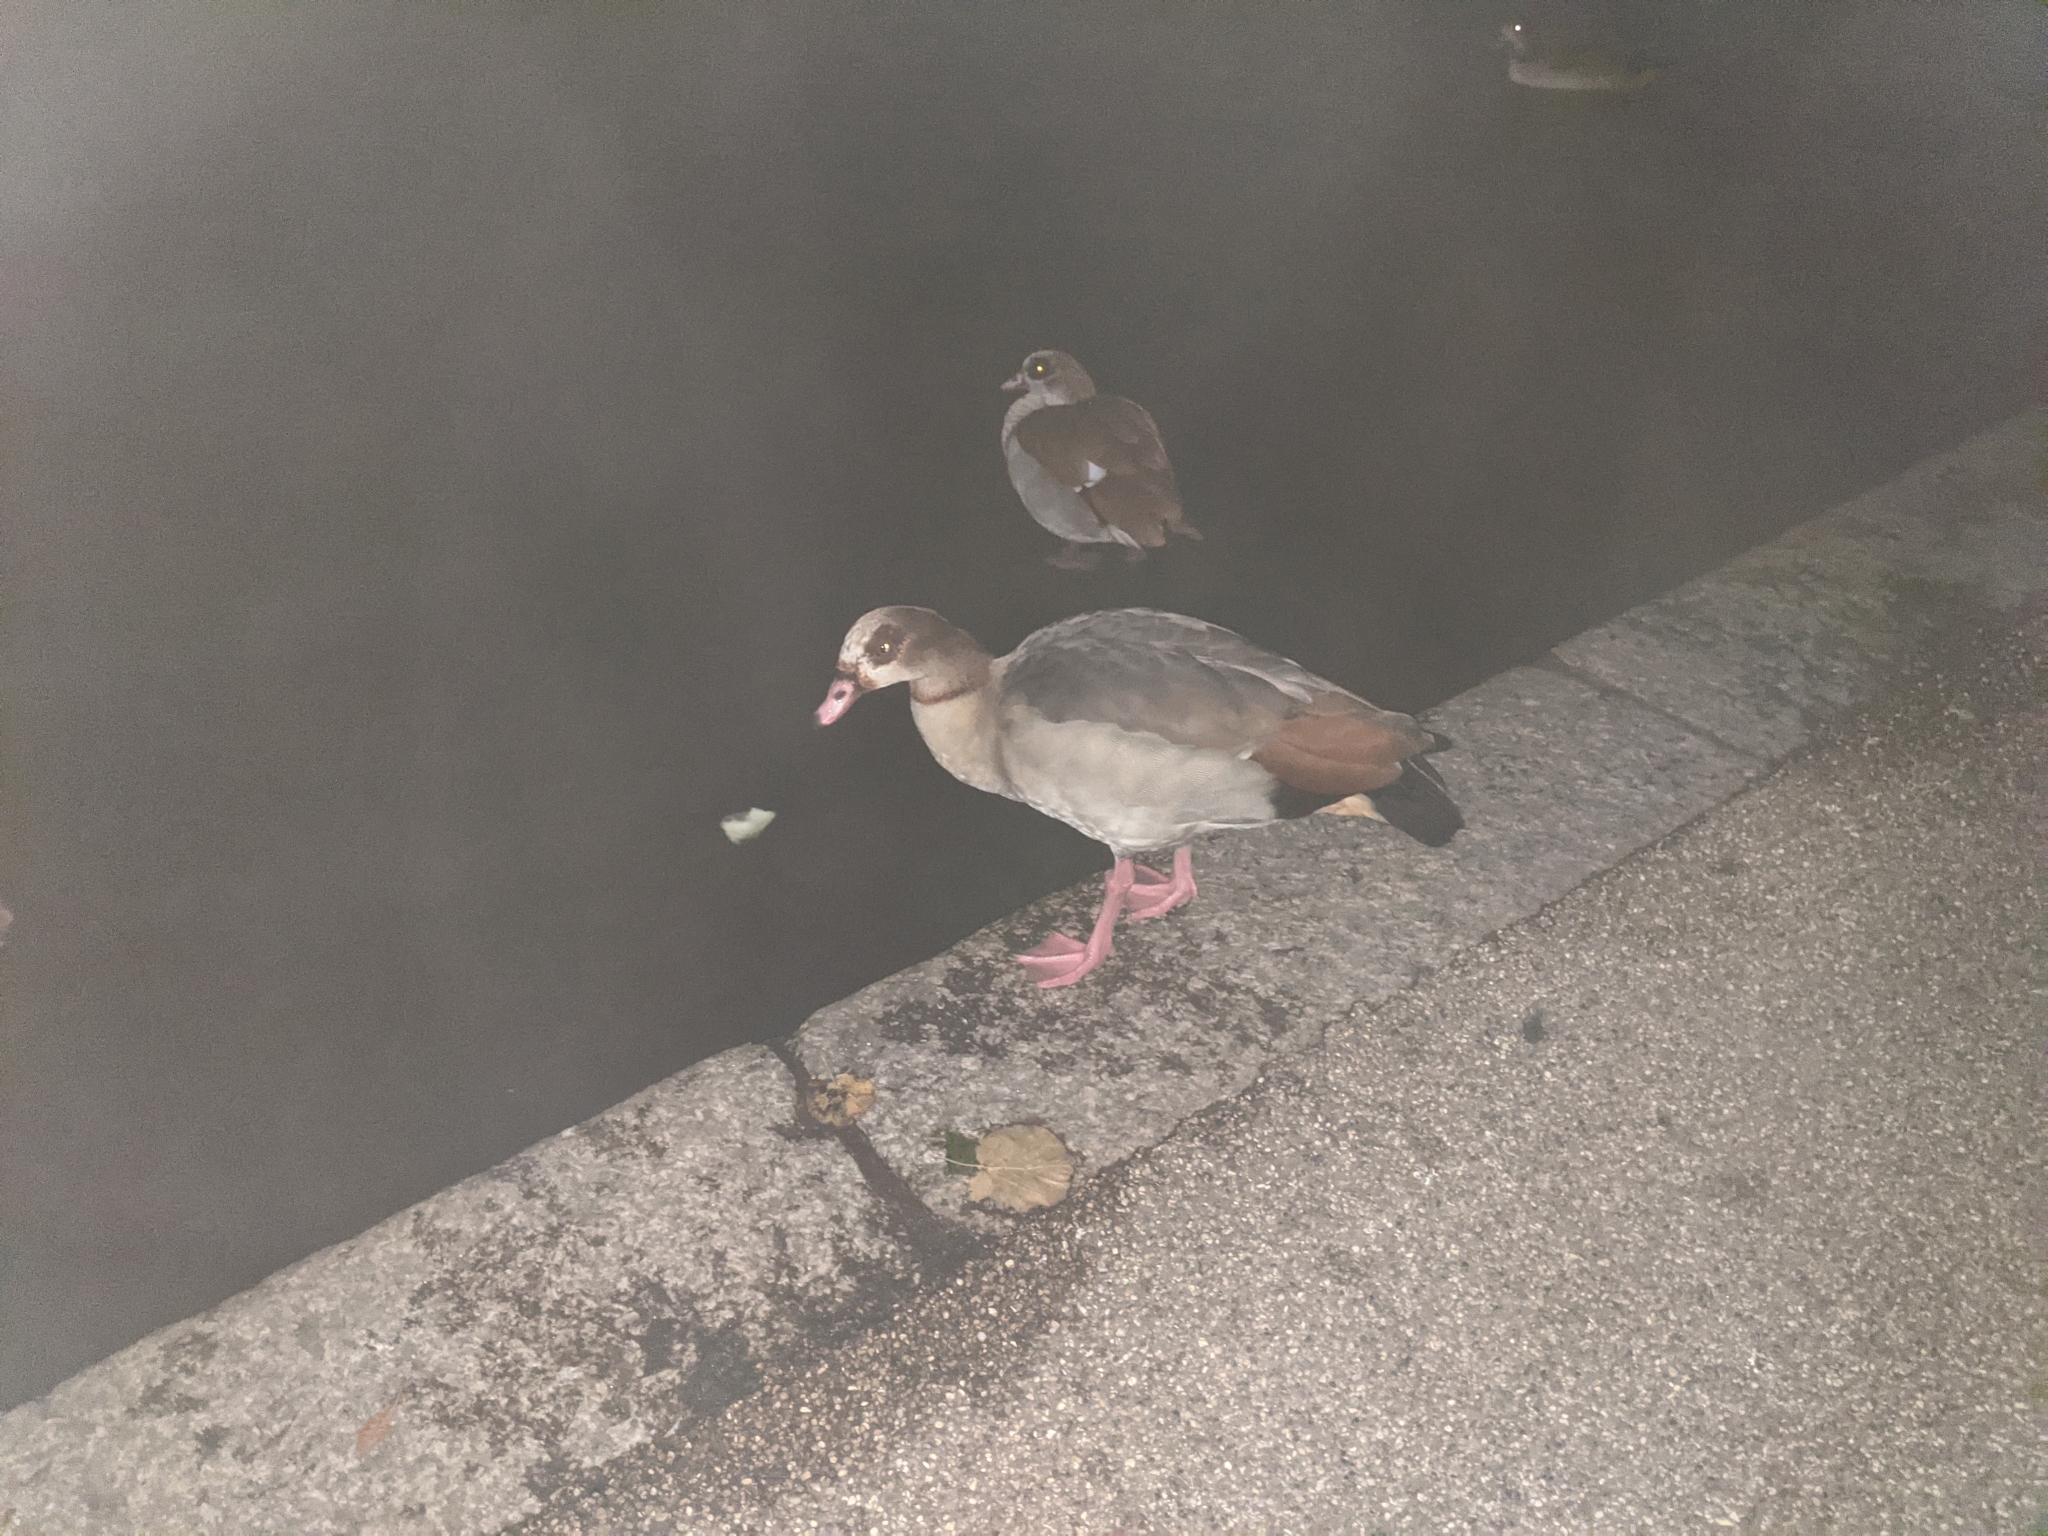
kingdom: Animalia
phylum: Chordata
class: Aves
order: Anseriformes
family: Anatidae
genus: Alopochen
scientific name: Alopochen aegyptiaca
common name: Egyptian goose
